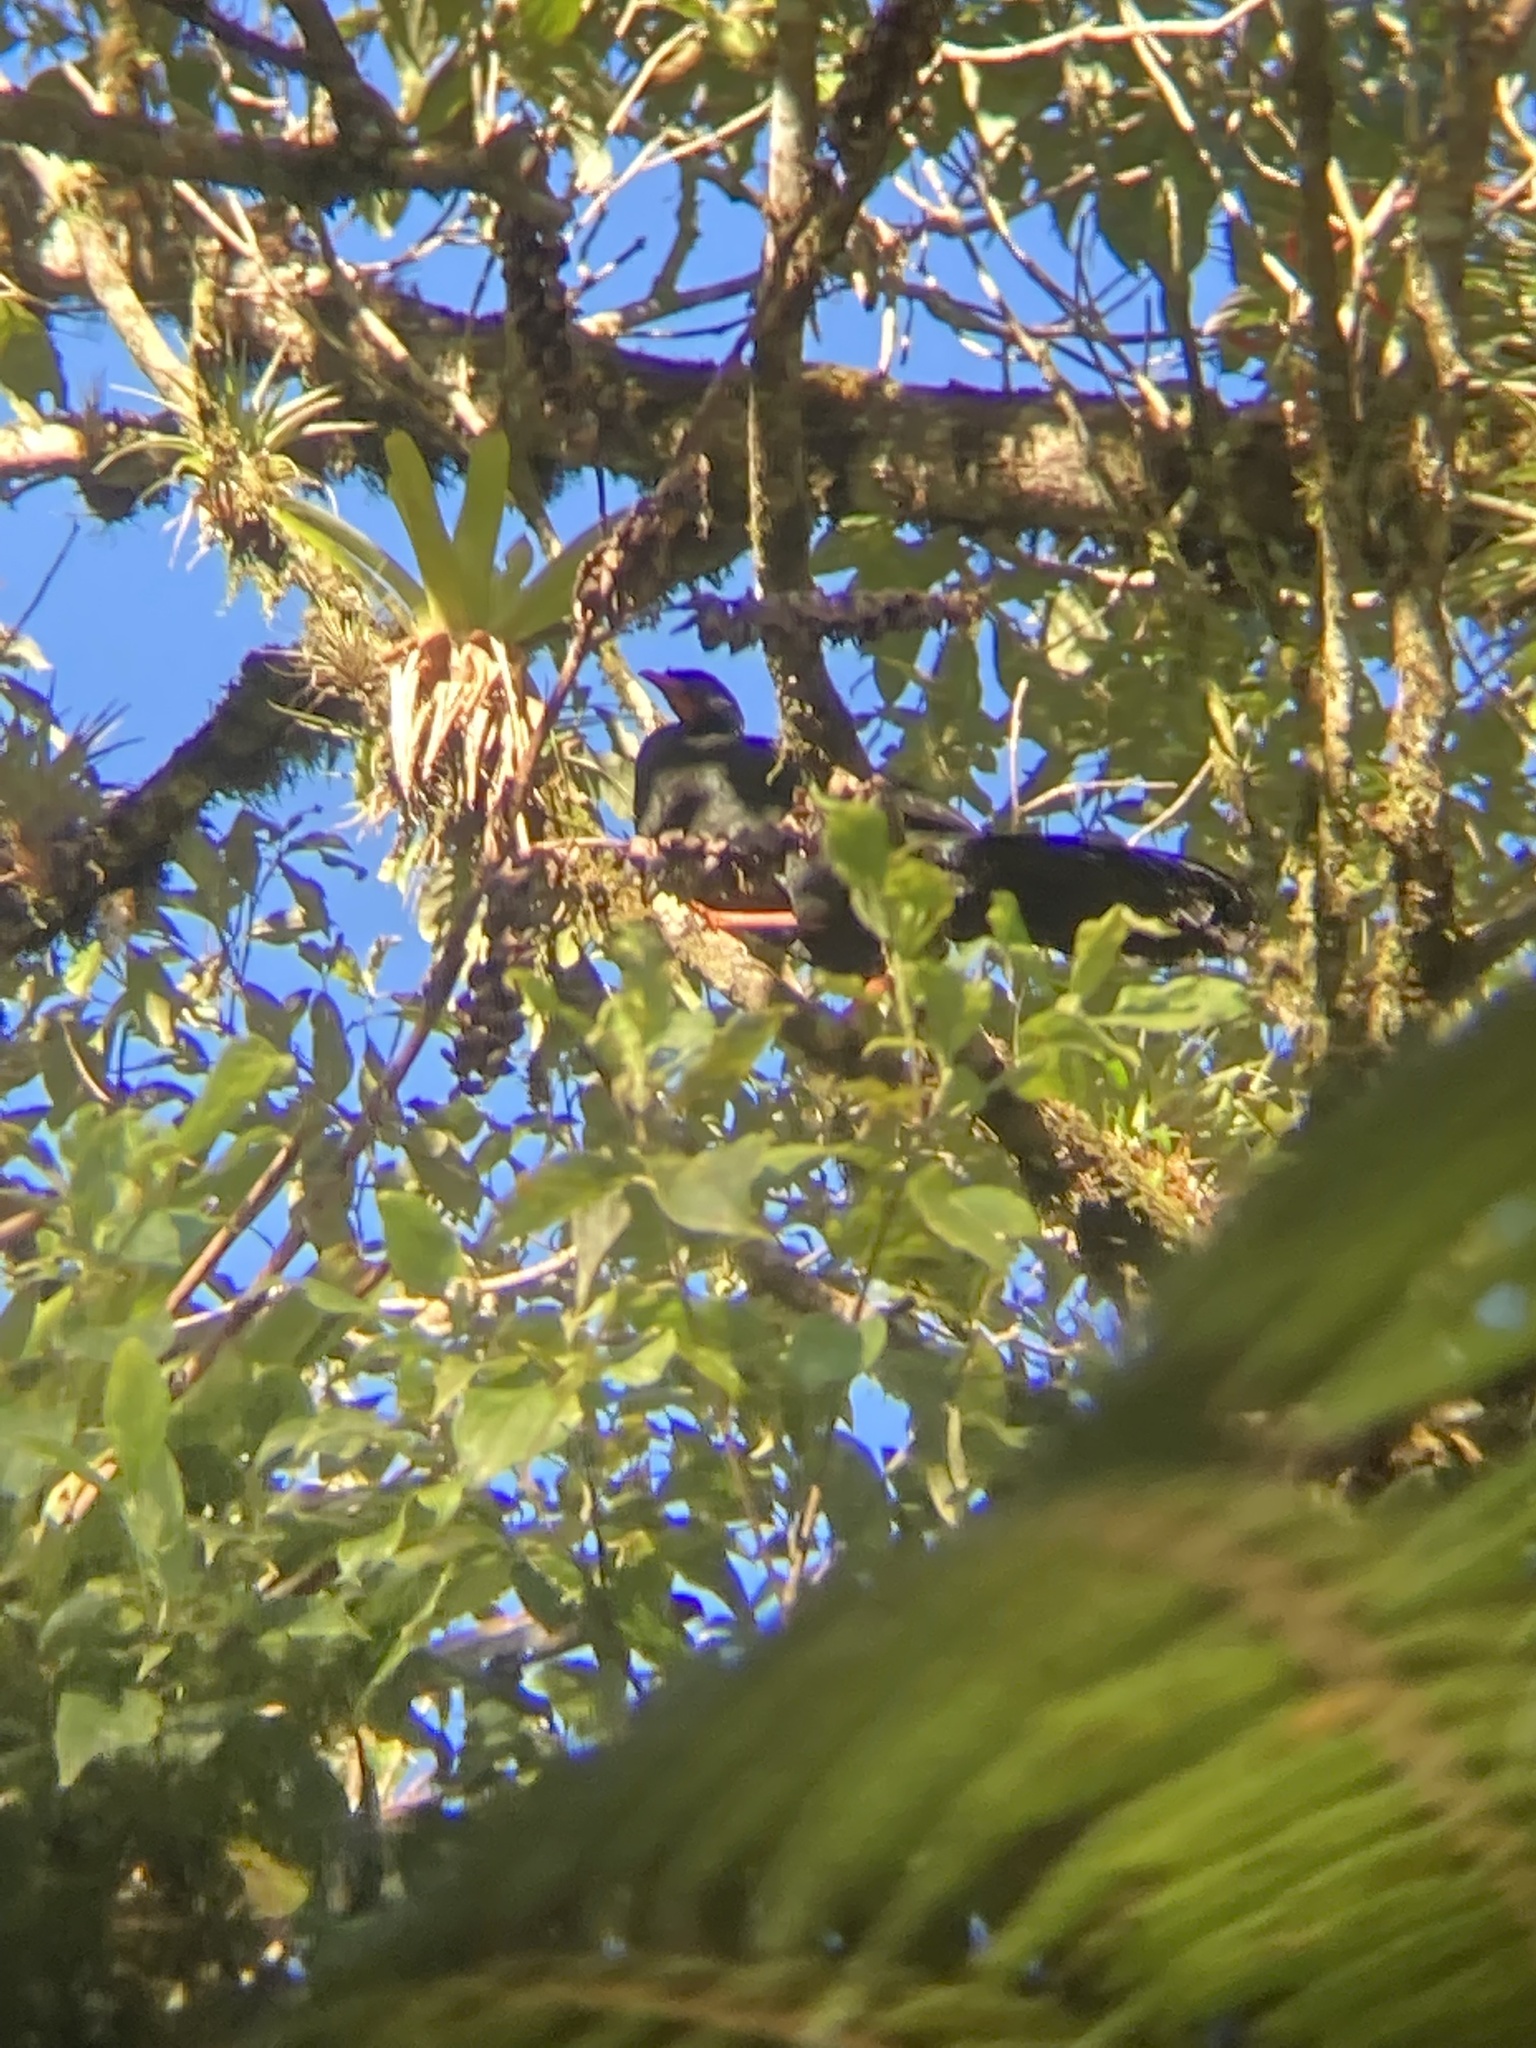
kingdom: Animalia
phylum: Chordata
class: Aves
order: Galliformes
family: Cracidae
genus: Penelopina
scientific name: Penelopina nigra
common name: Highland guan
